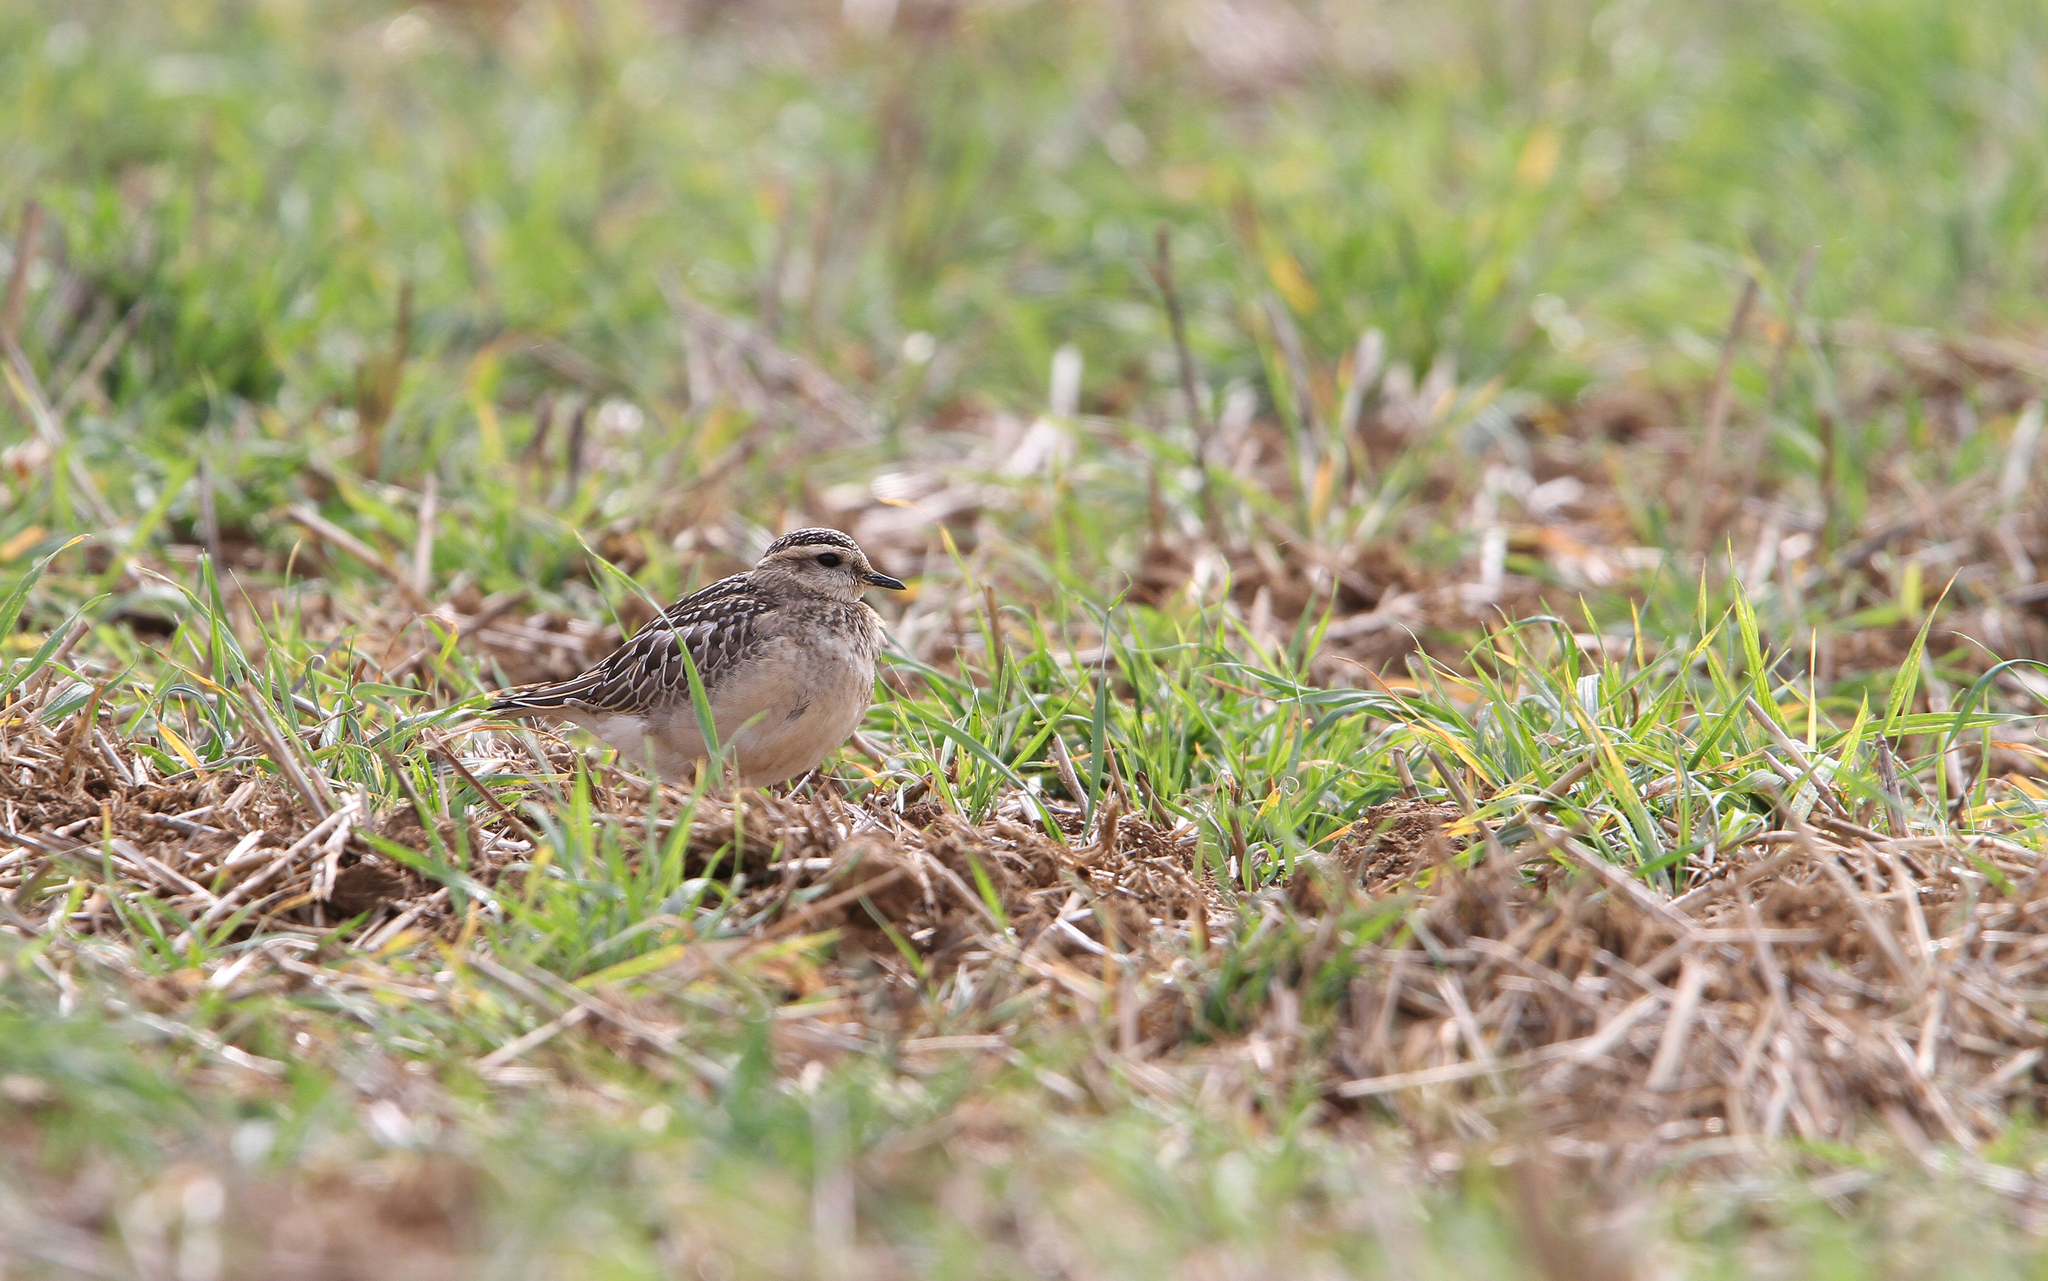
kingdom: Animalia
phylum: Chordata
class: Aves
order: Charadriiformes
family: Charadriidae
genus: Charadrius
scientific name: Charadrius morinellus
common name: Eurasian dotterel
